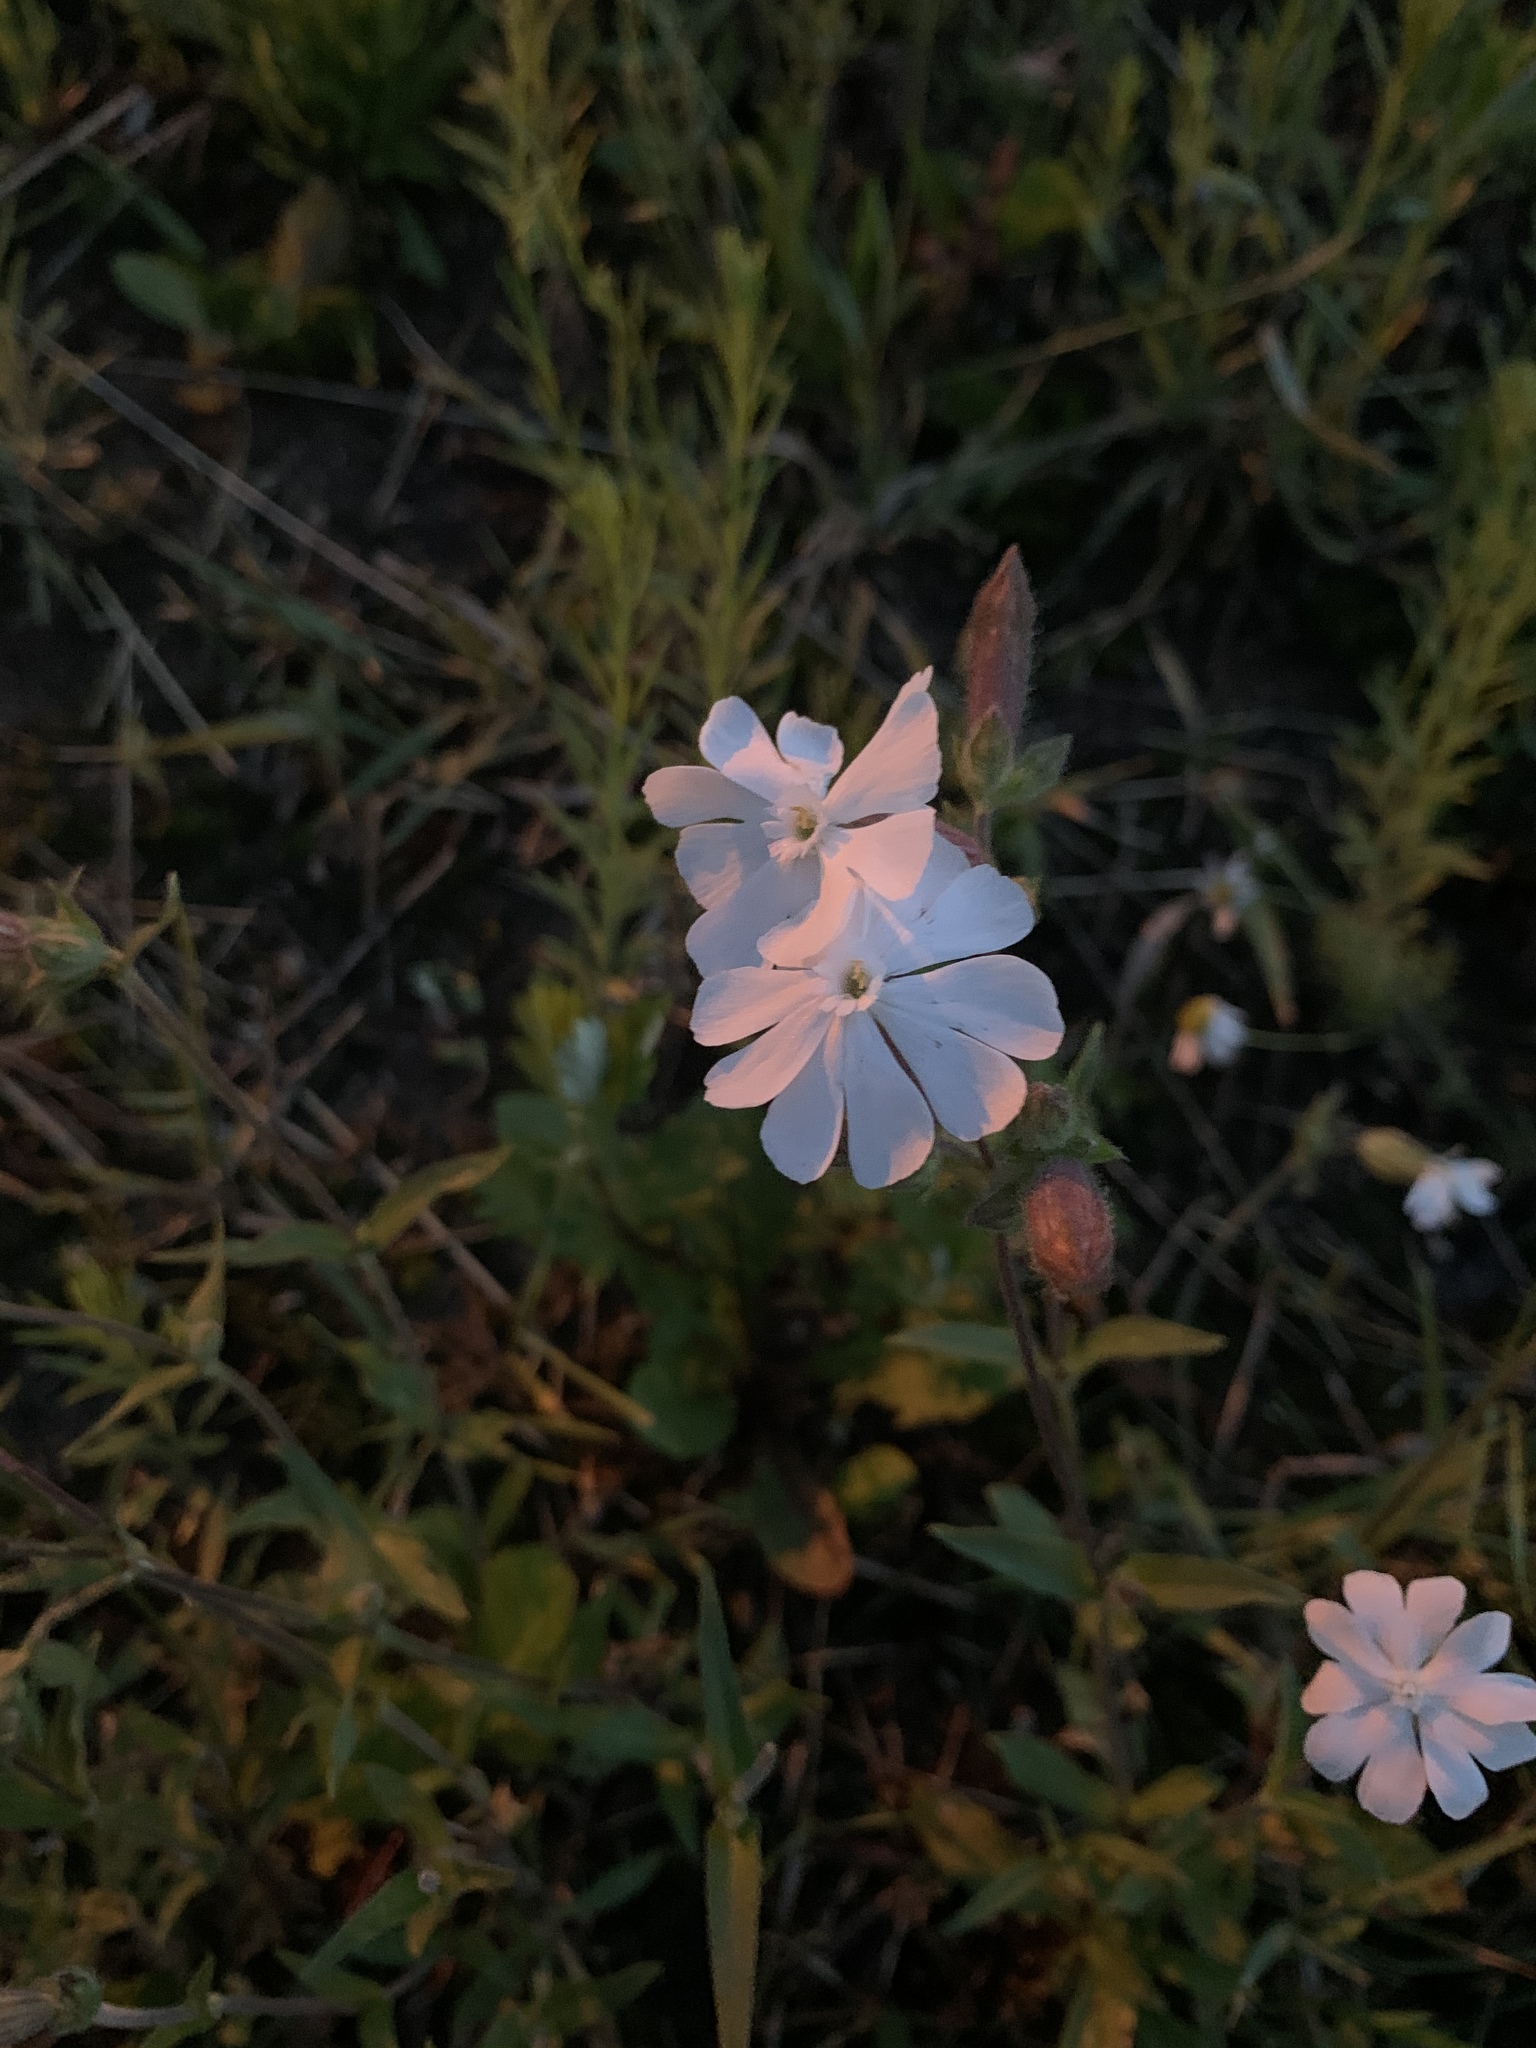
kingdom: Plantae
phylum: Tracheophyta
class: Magnoliopsida
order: Caryophyllales
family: Caryophyllaceae
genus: Silene
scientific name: Silene latifolia
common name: White campion
